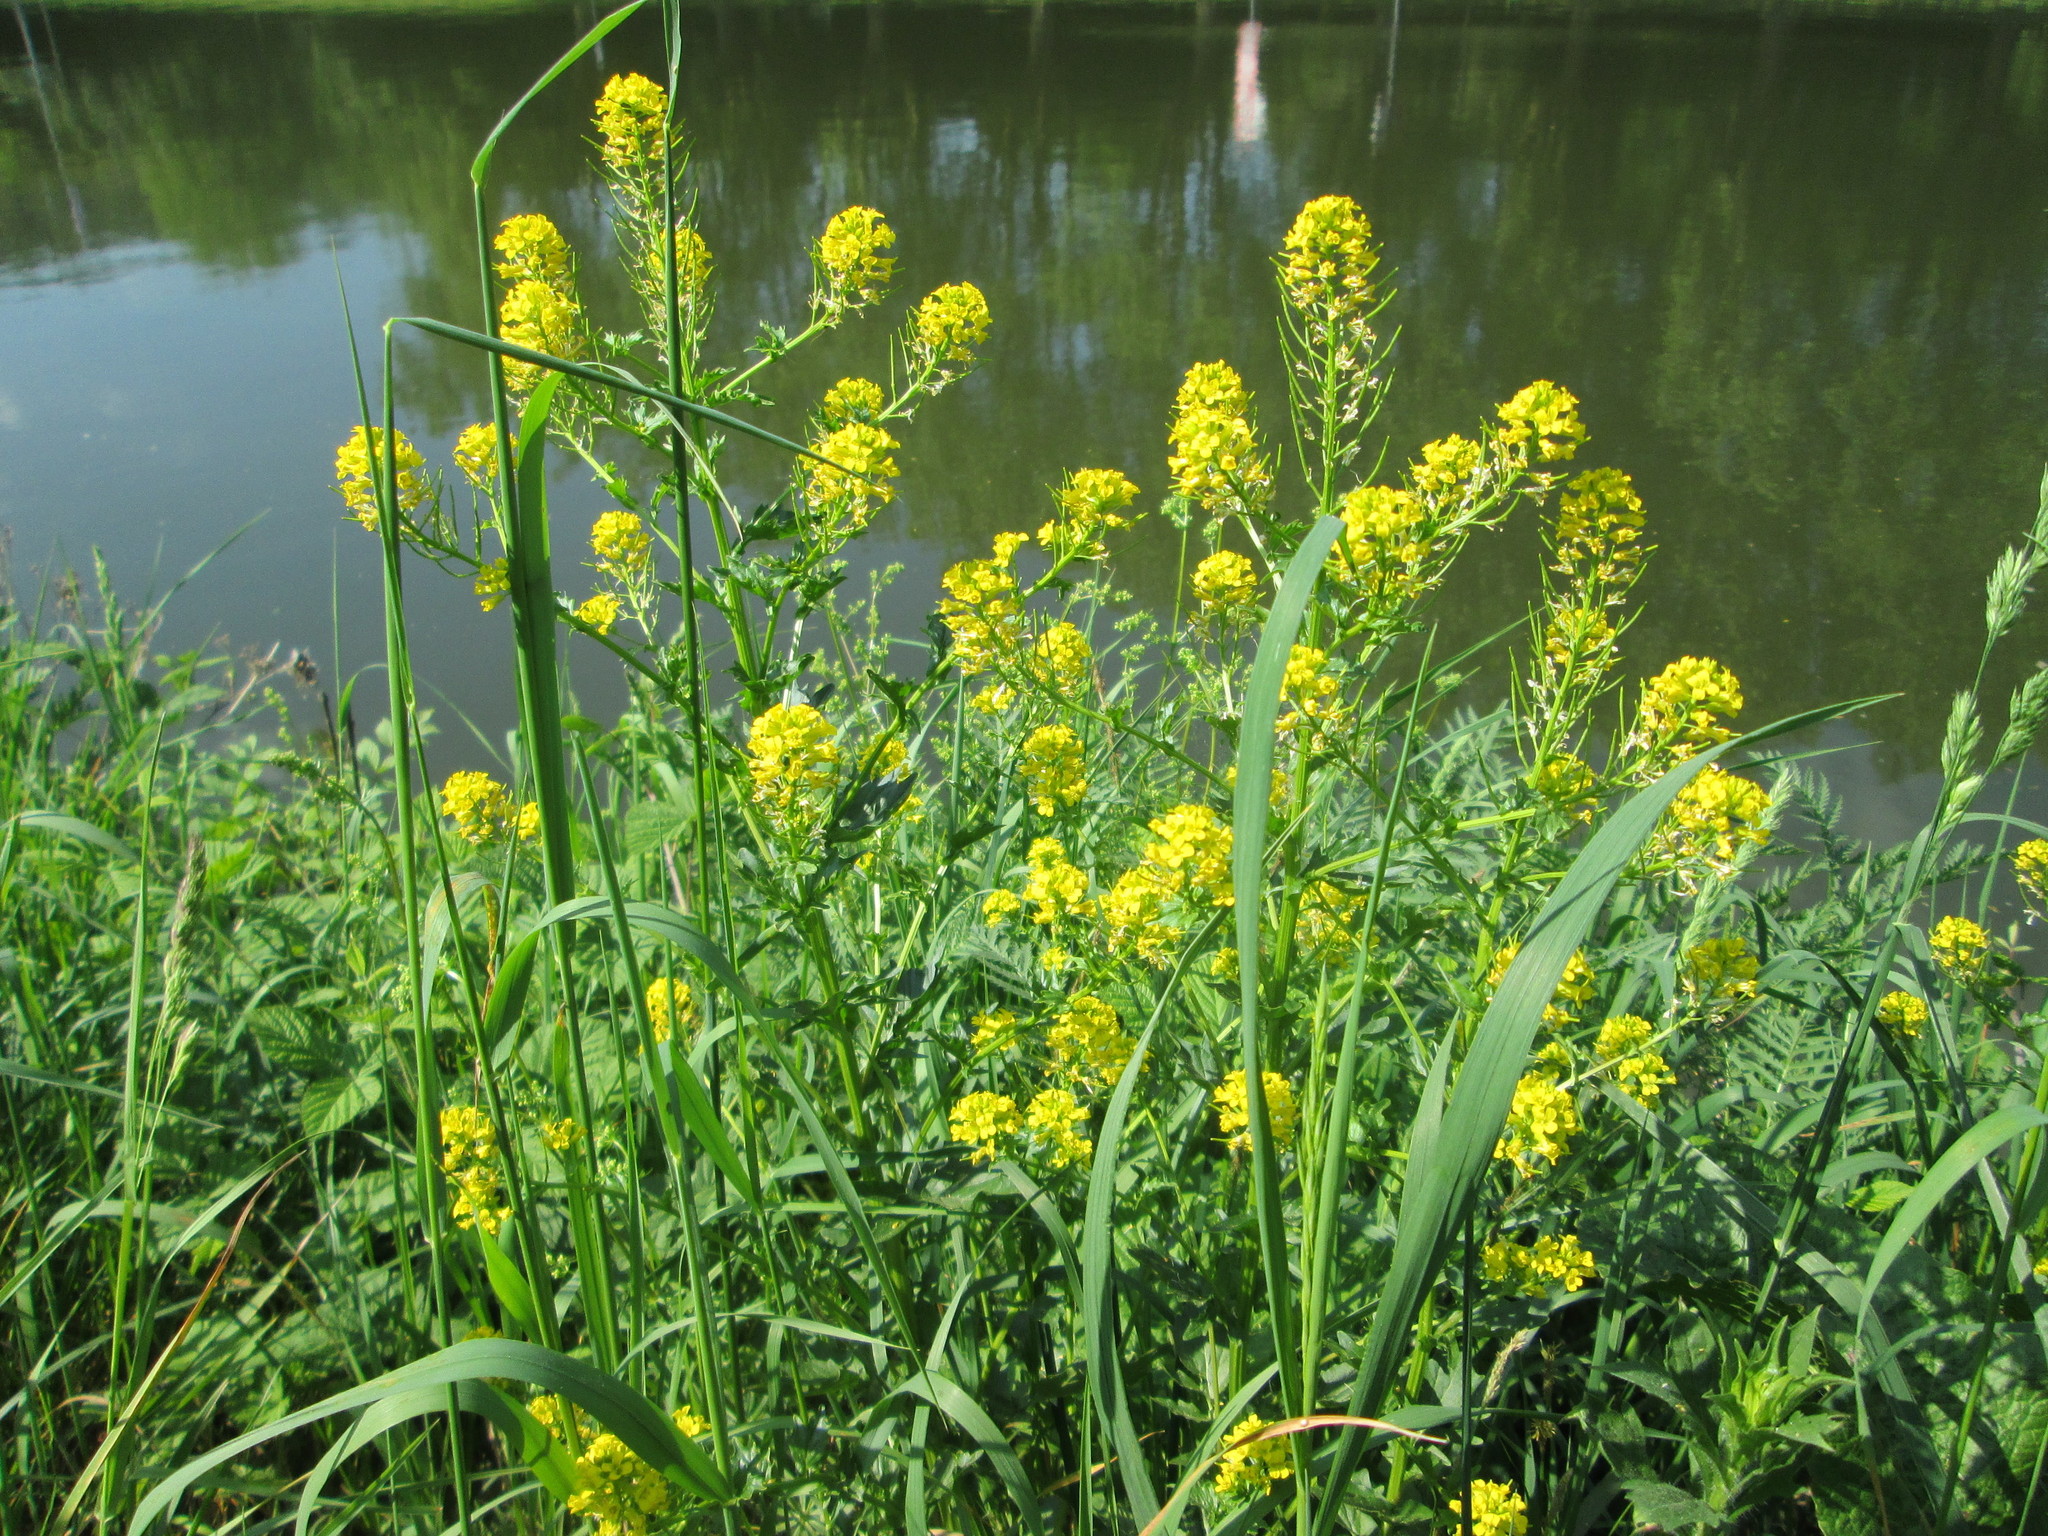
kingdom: Plantae
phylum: Tracheophyta
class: Magnoliopsida
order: Brassicales
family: Brassicaceae
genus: Barbarea
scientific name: Barbarea vulgaris
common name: Cressy-greens
